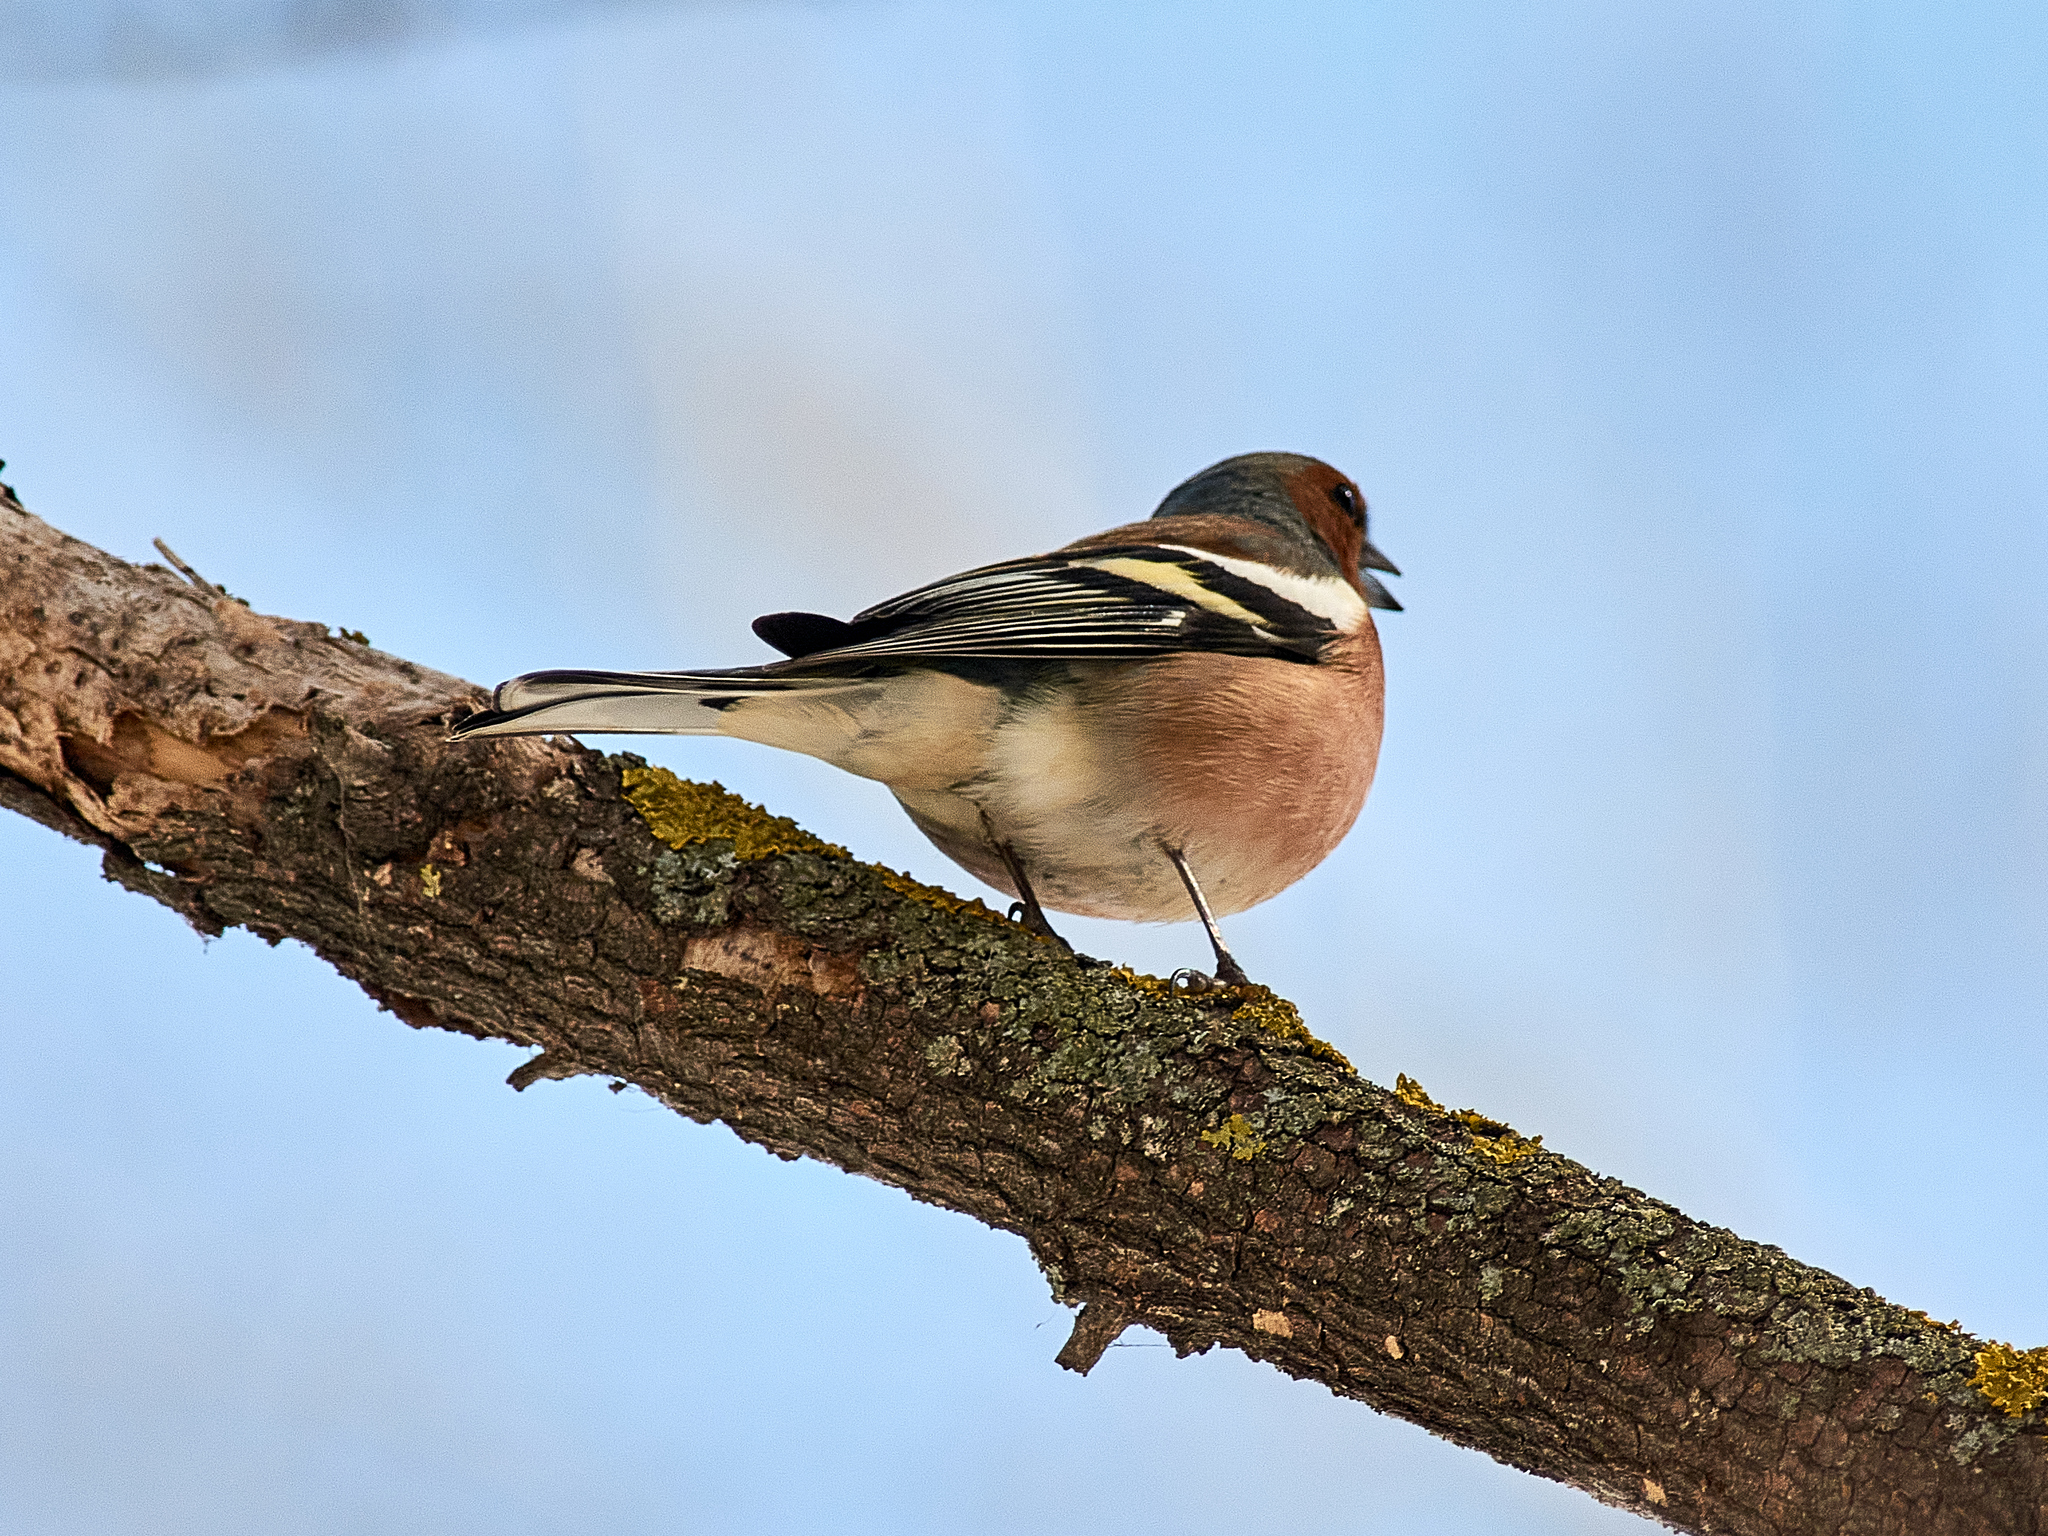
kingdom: Animalia
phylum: Chordata
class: Aves
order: Passeriformes
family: Fringillidae
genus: Fringilla
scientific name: Fringilla coelebs
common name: Common chaffinch
